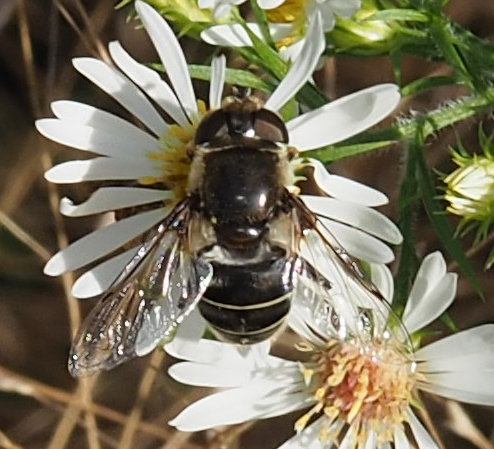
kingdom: Animalia
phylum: Arthropoda
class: Insecta
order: Diptera
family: Syrphidae
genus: Eristalis
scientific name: Eristalis dimidiata
